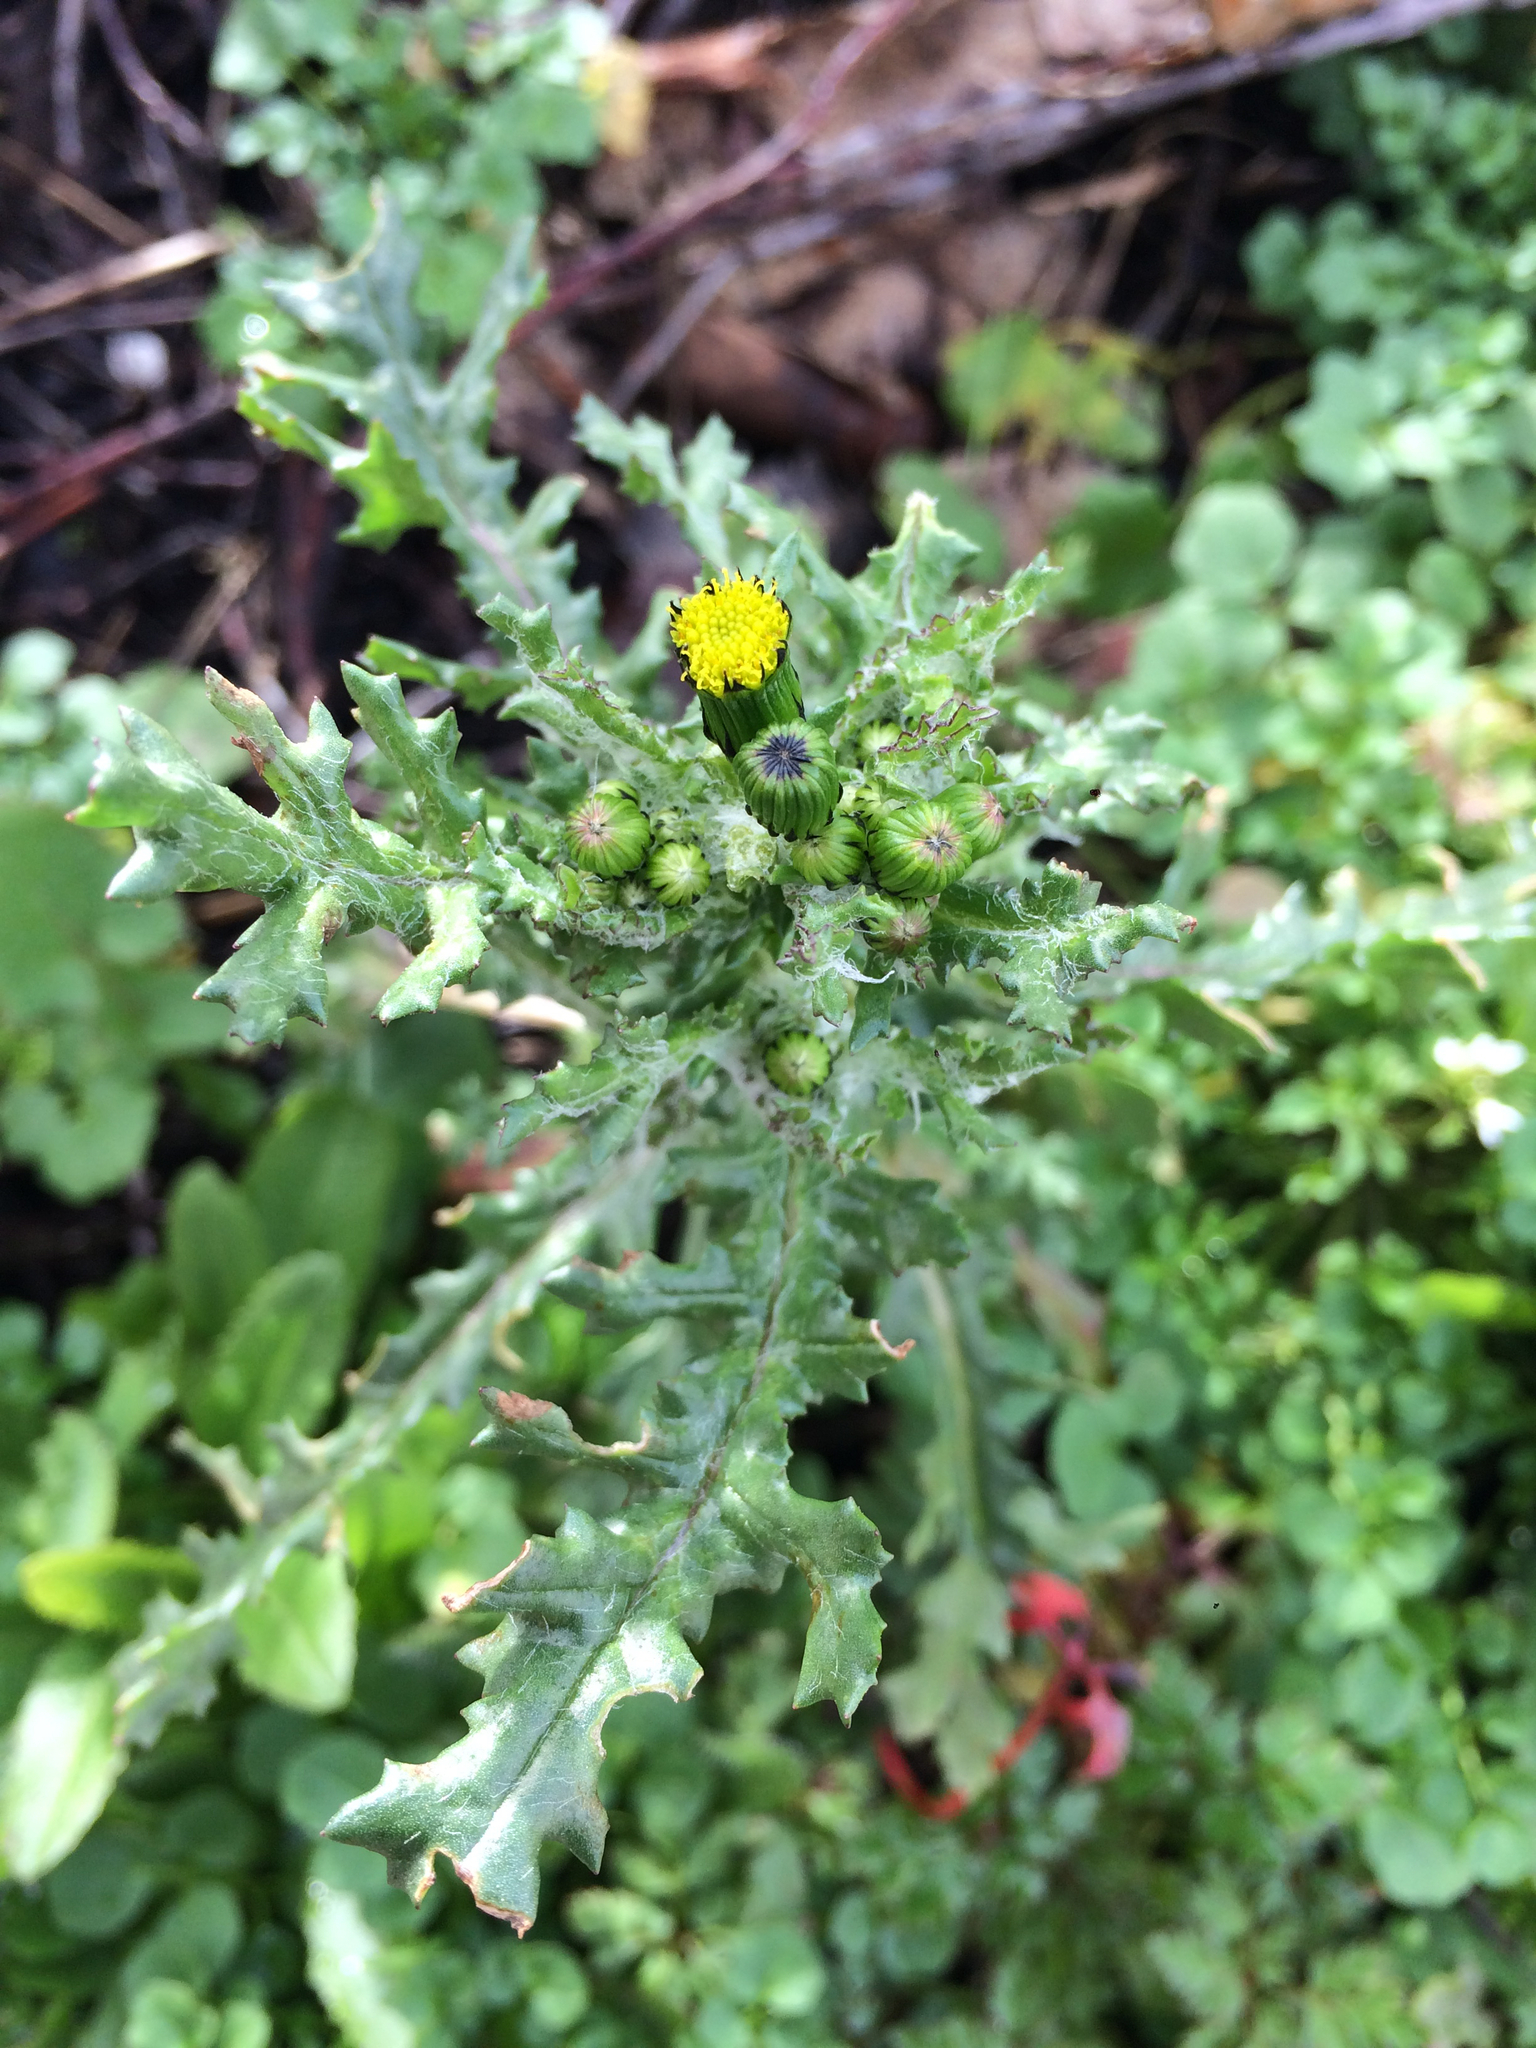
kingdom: Plantae
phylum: Tracheophyta
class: Magnoliopsida
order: Asterales
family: Asteraceae
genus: Senecio
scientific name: Senecio vulgaris
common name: Old-man-in-the-spring
